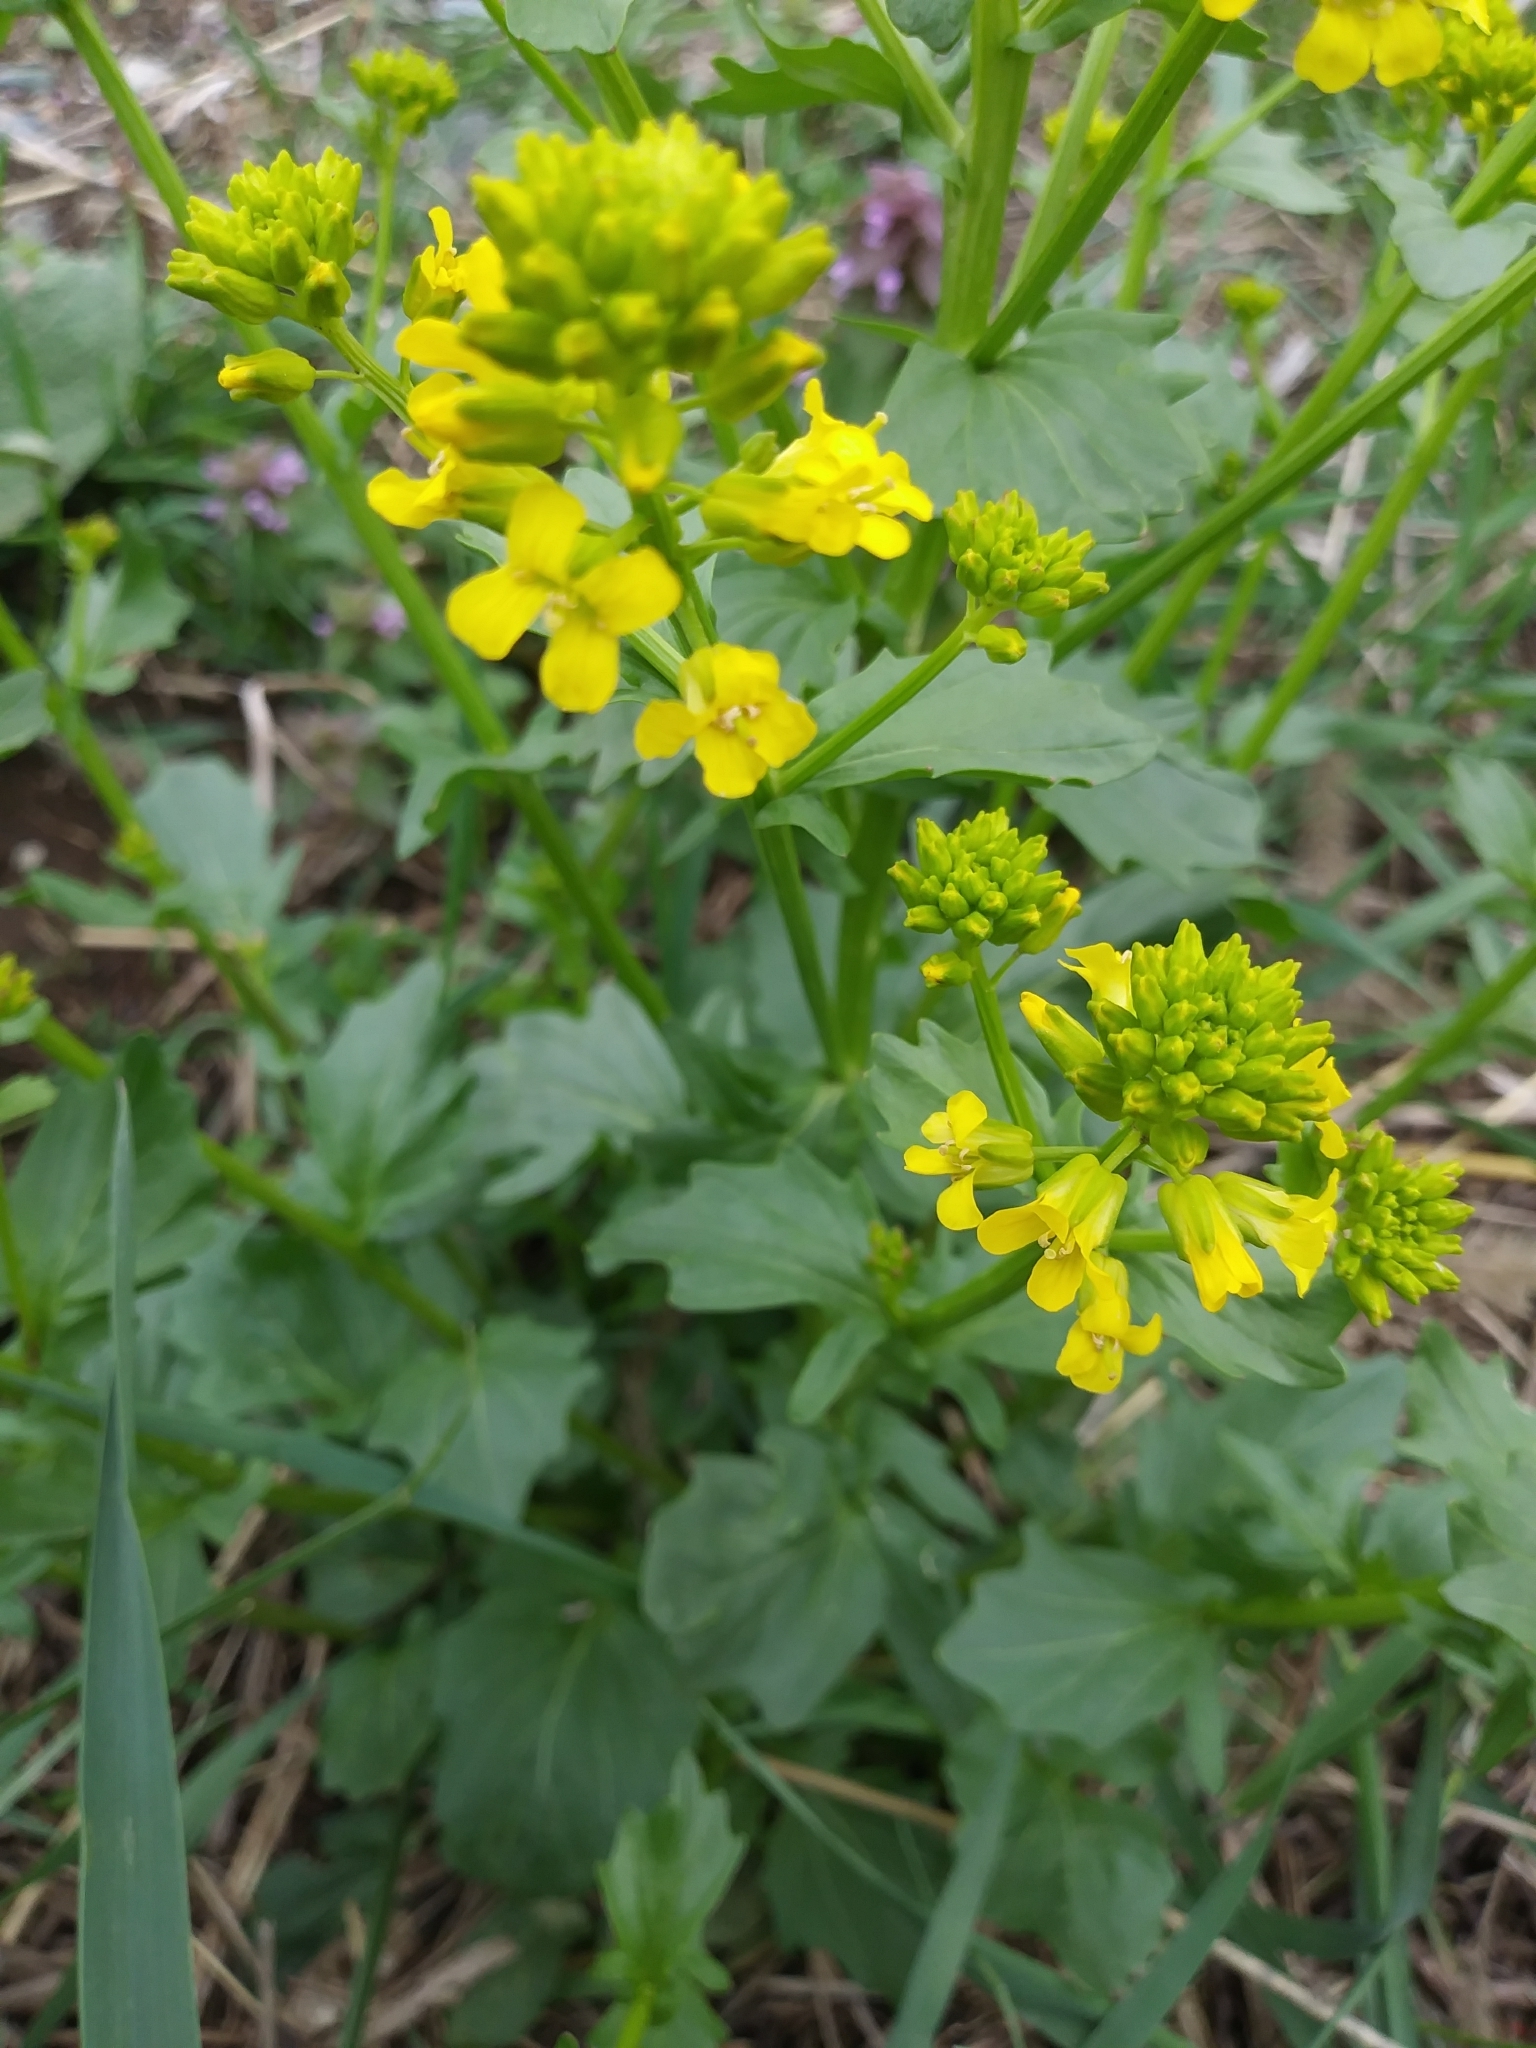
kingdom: Plantae
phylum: Tracheophyta
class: Magnoliopsida
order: Brassicales
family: Brassicaceae
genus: Barbarea
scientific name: Barbarea vulgaris
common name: Cressy-greens
